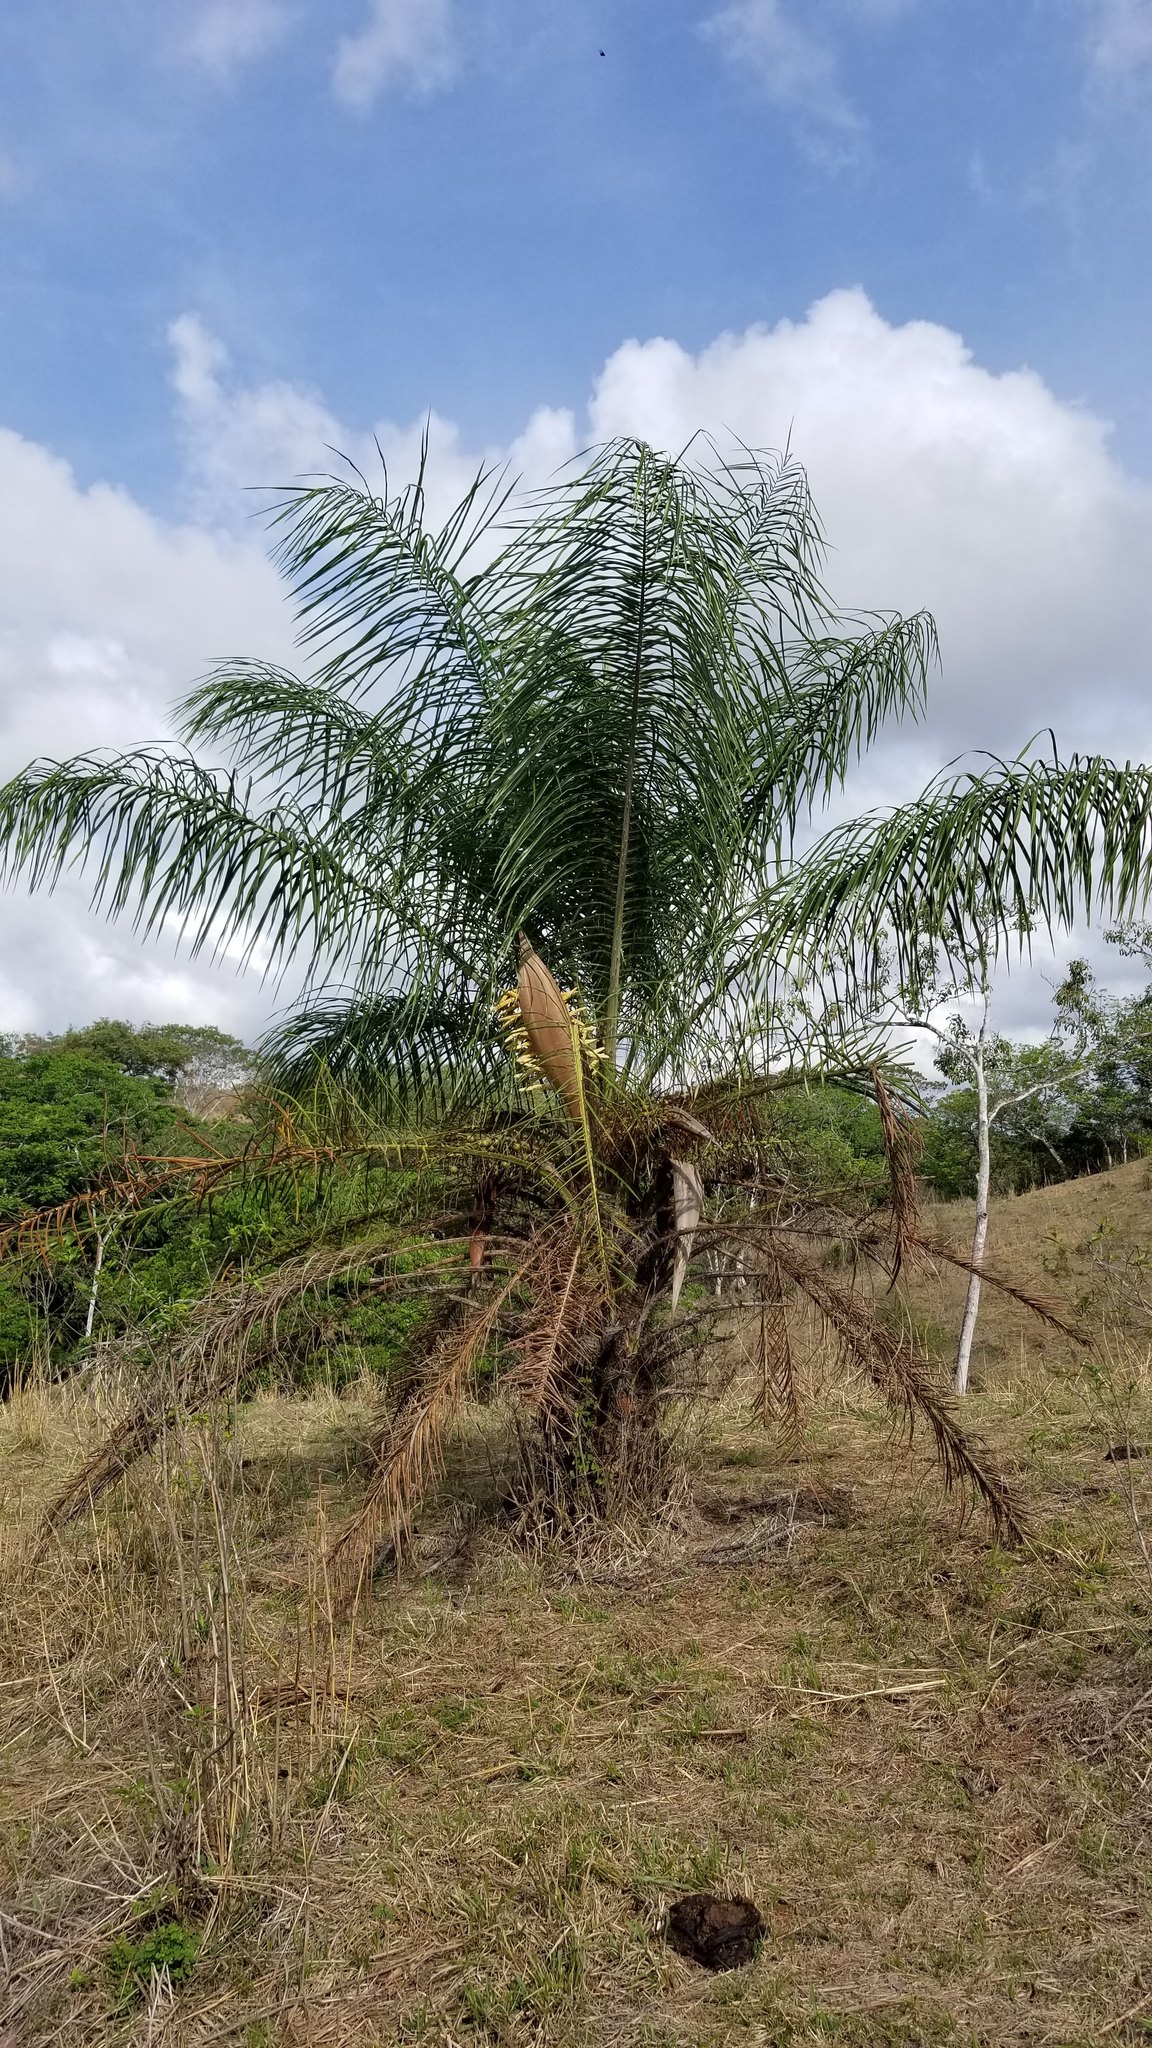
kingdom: Plantae
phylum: Tracheophyta
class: Liliopsida
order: Arecales
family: Arecaceae
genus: Acrocomia
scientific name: Acrocomia aculeata
